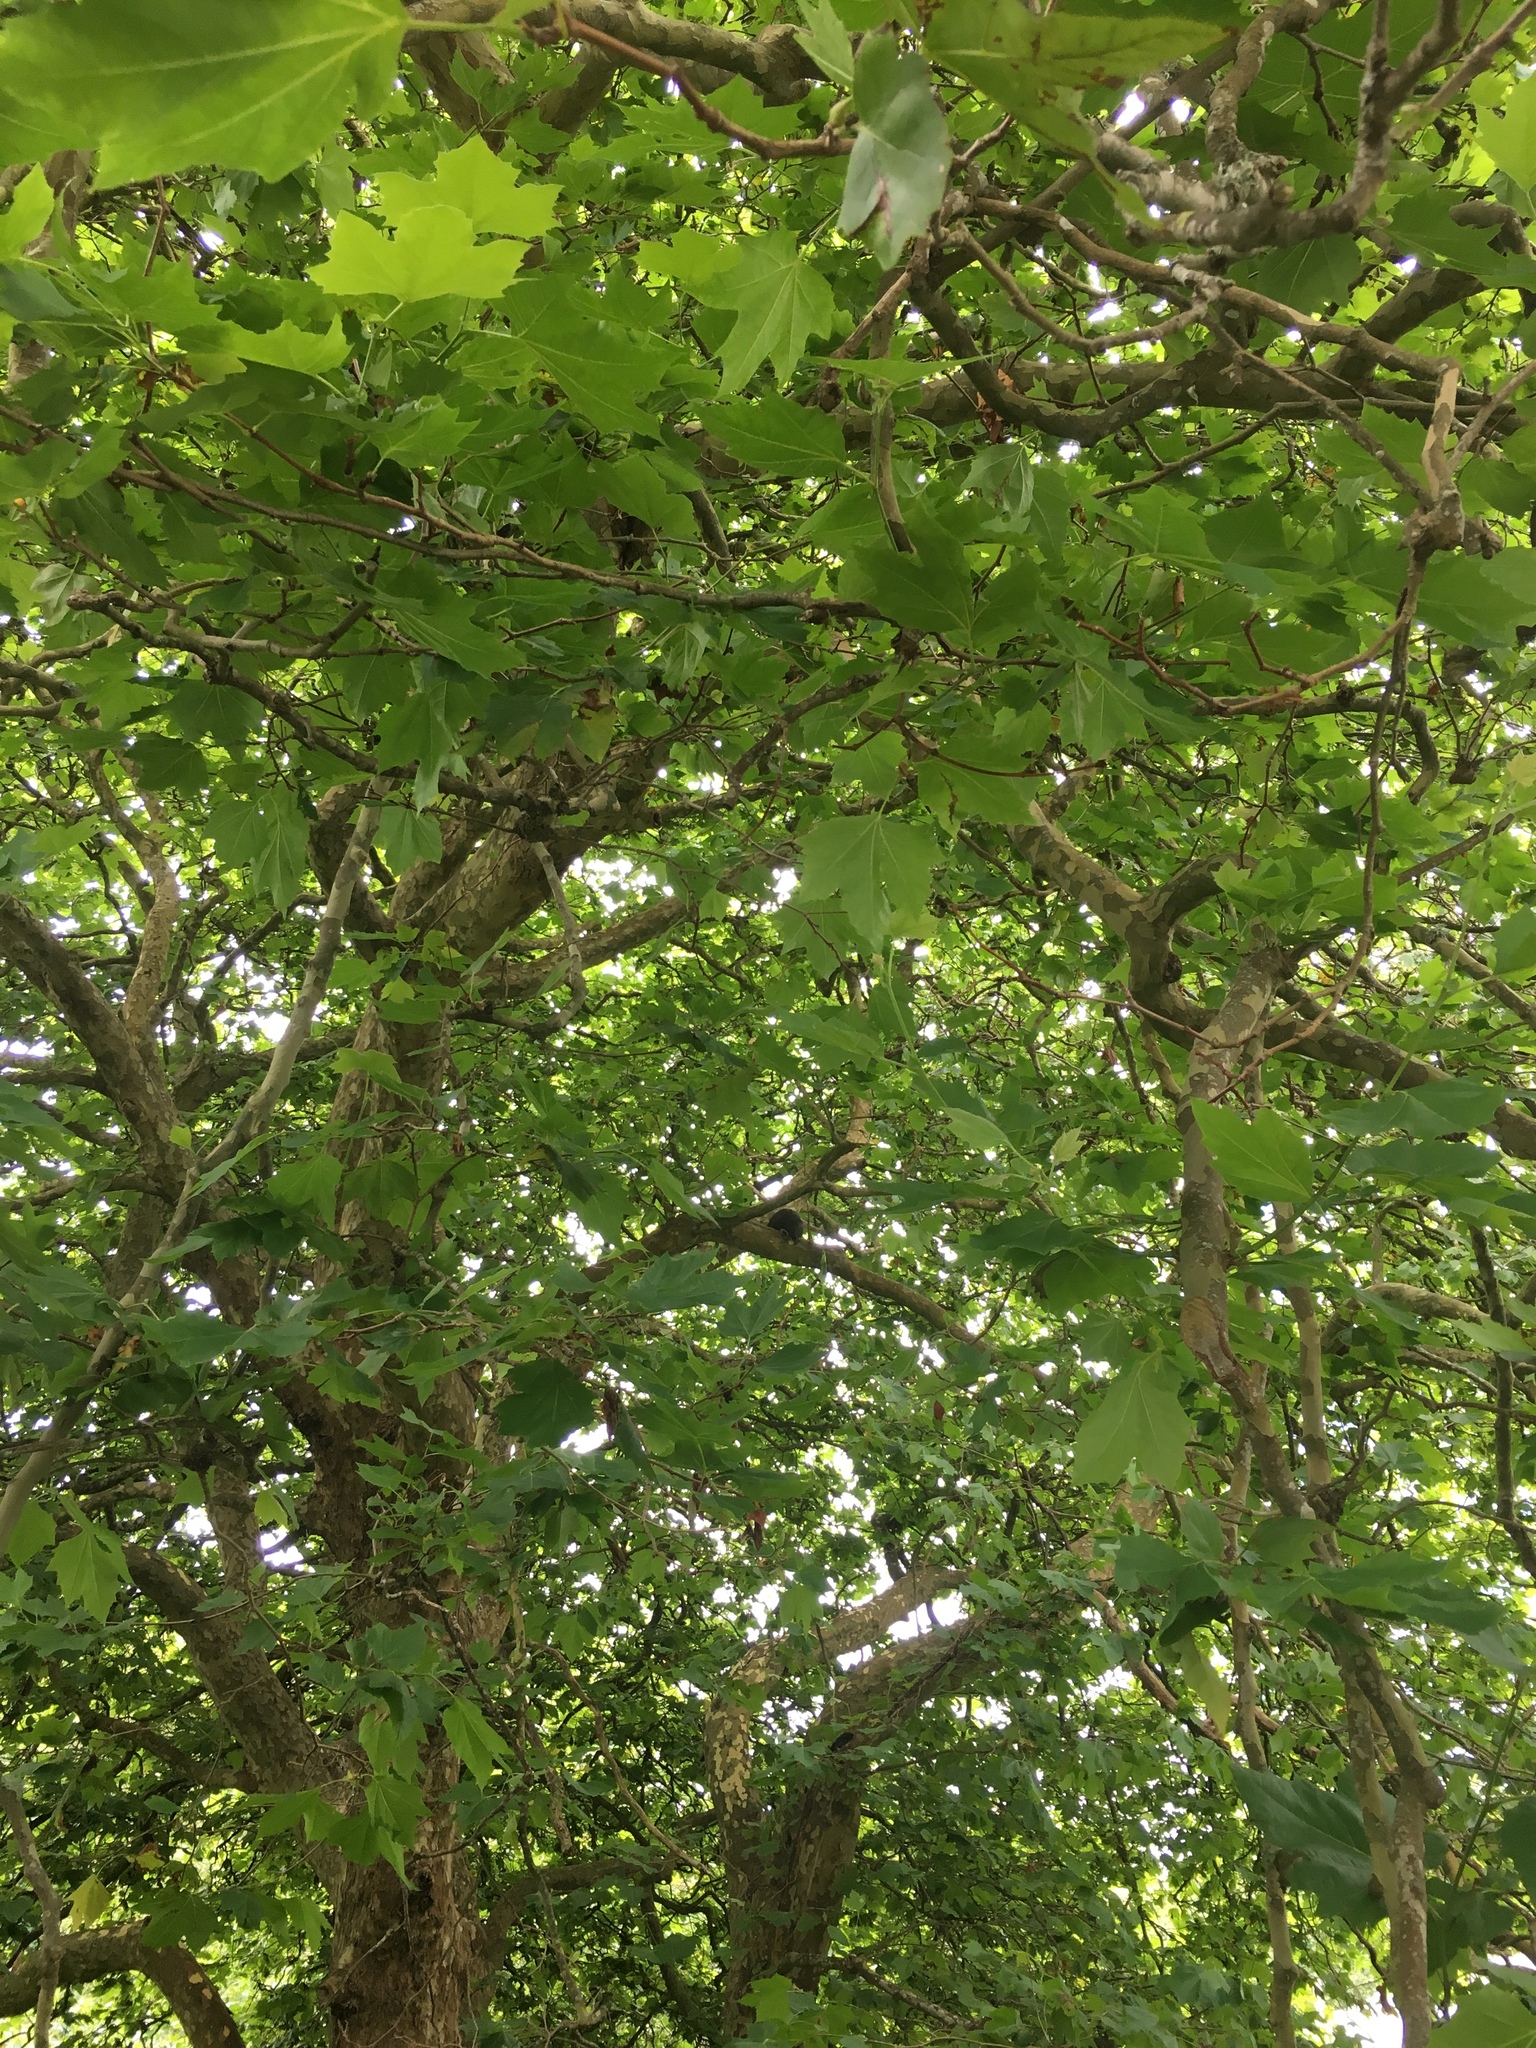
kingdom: Animalia
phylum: Chordata
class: Aves
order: Psittaciformes
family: Psittacidae
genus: Nestor
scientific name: Nestor meridionalis
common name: New zealand kaka
